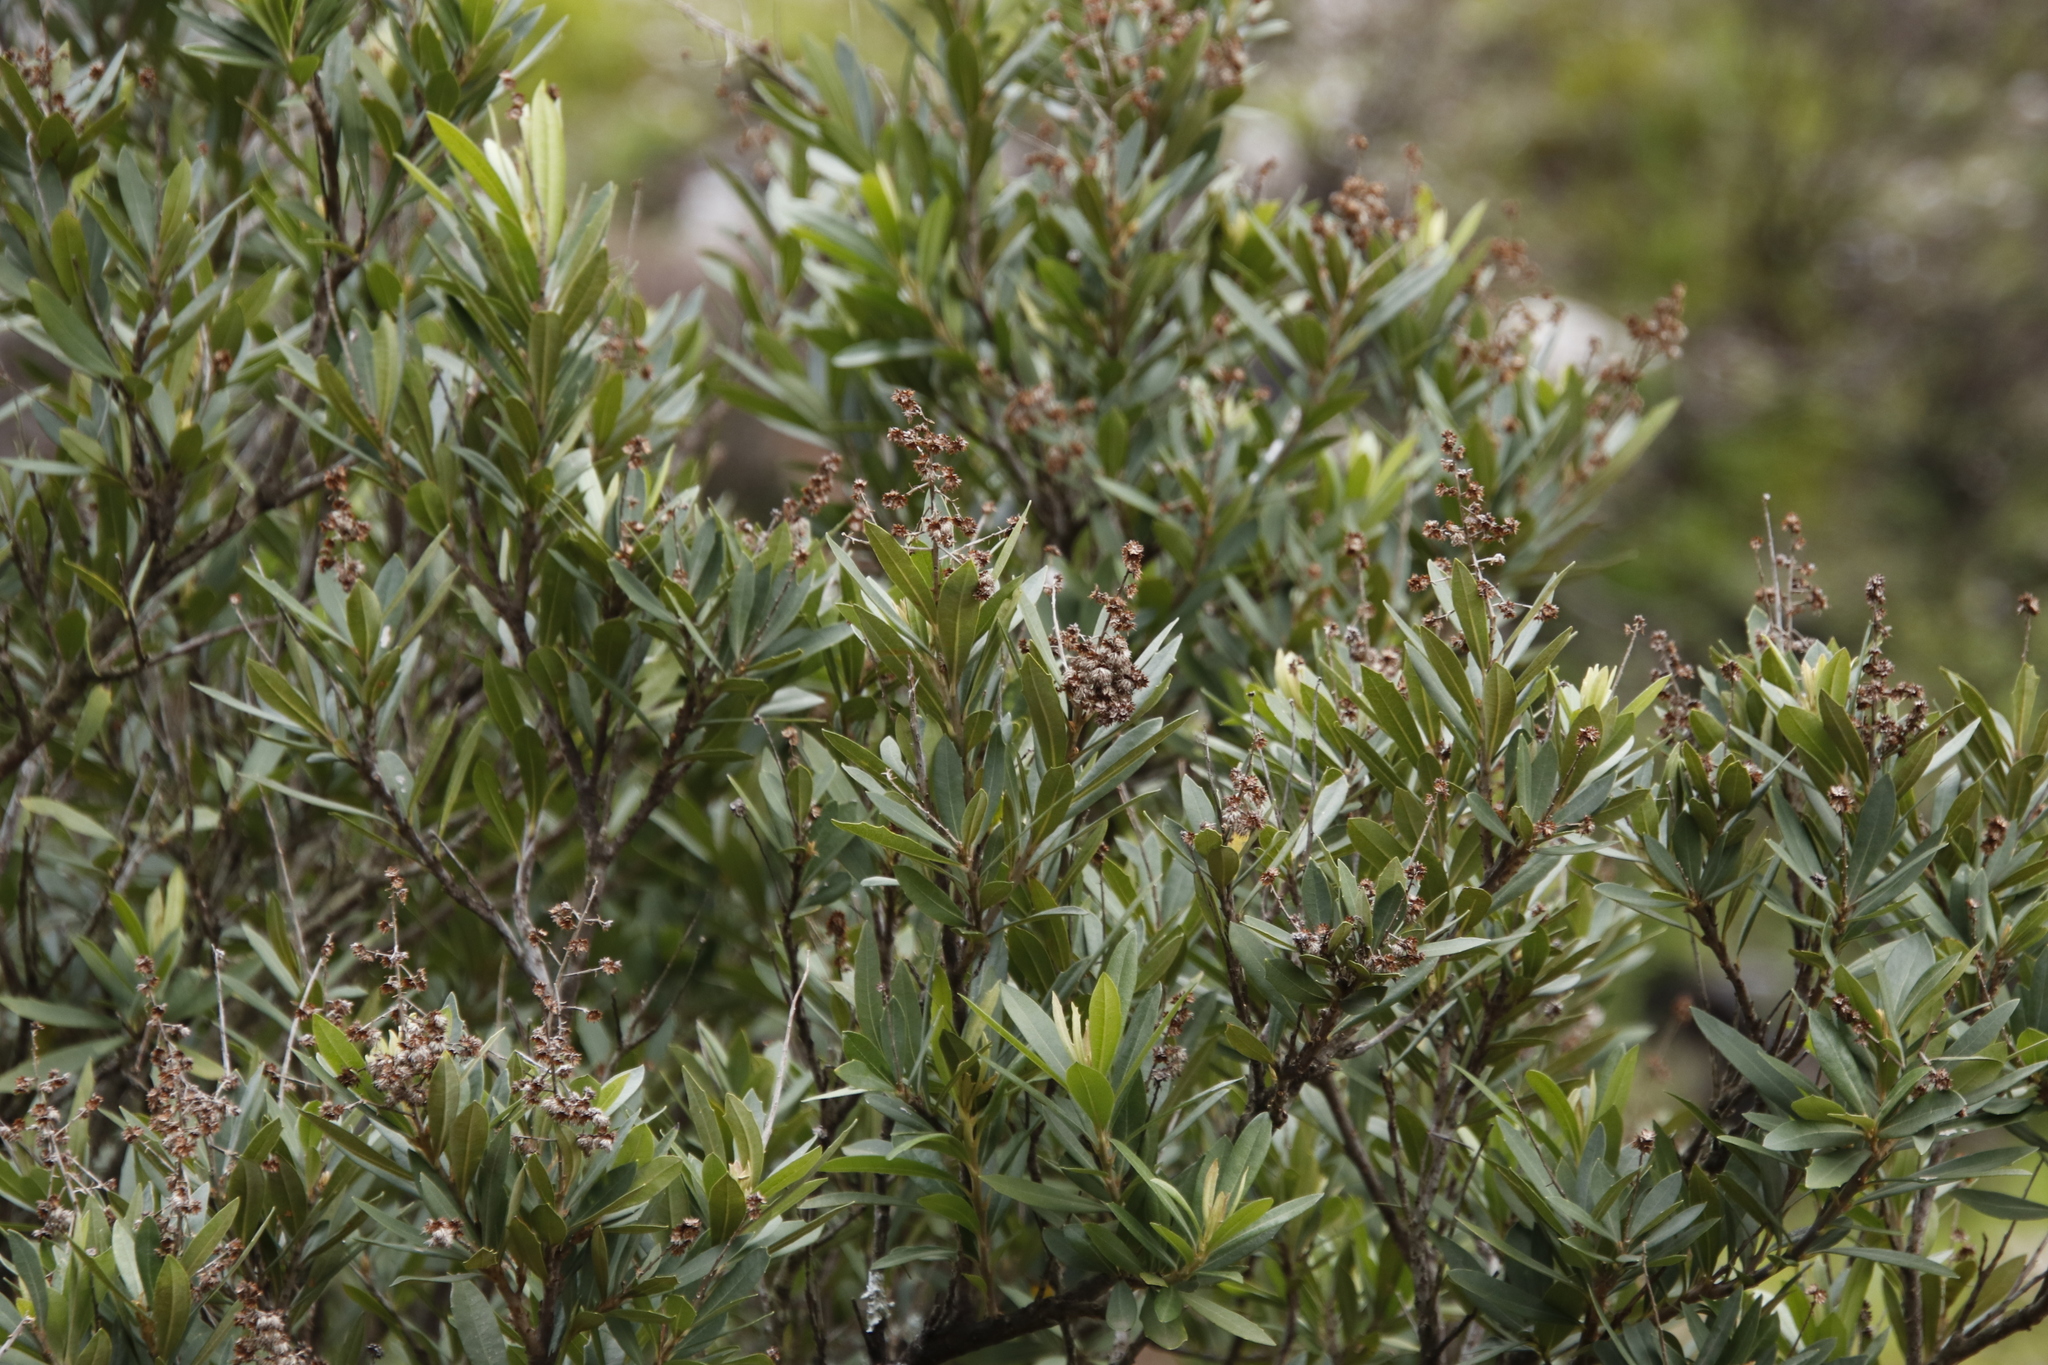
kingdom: Plantae
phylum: Tracheophyta
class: Magnoliopsida
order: Asterales
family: Asteraceae
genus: Brachylaena
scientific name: Brachylaena neriifolia
